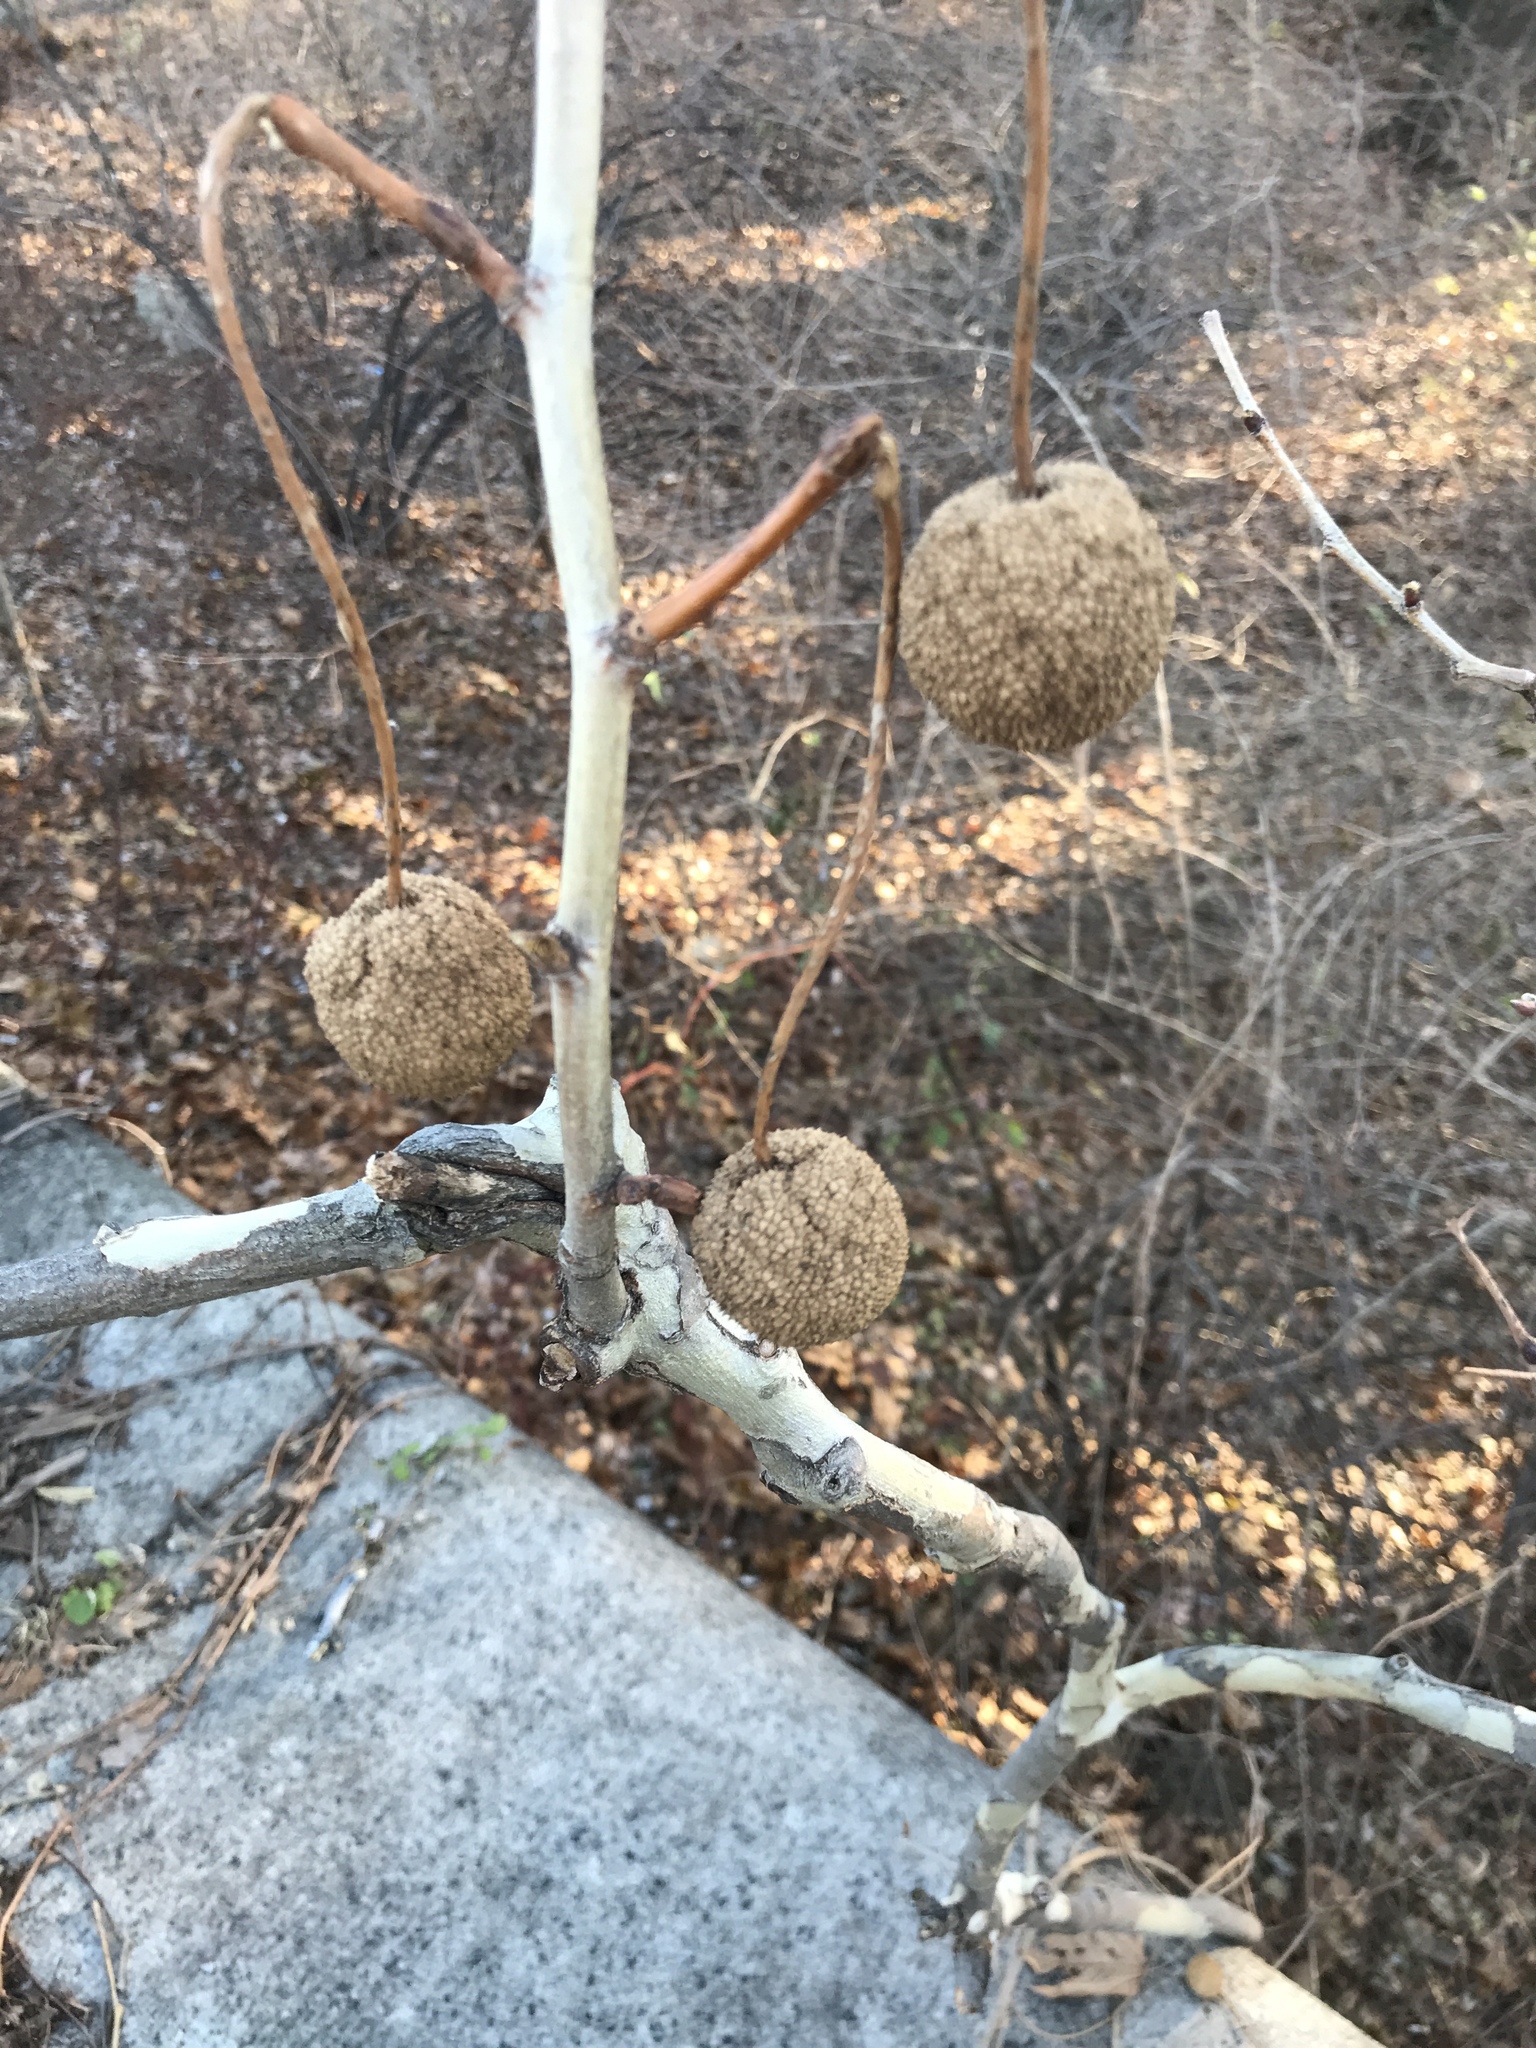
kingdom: Plantae
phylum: Tracheophyta
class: Magnoliopsida
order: Proteales
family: Platanaceae
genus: Platanus
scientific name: Platanus occidentalis
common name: American sycamore
